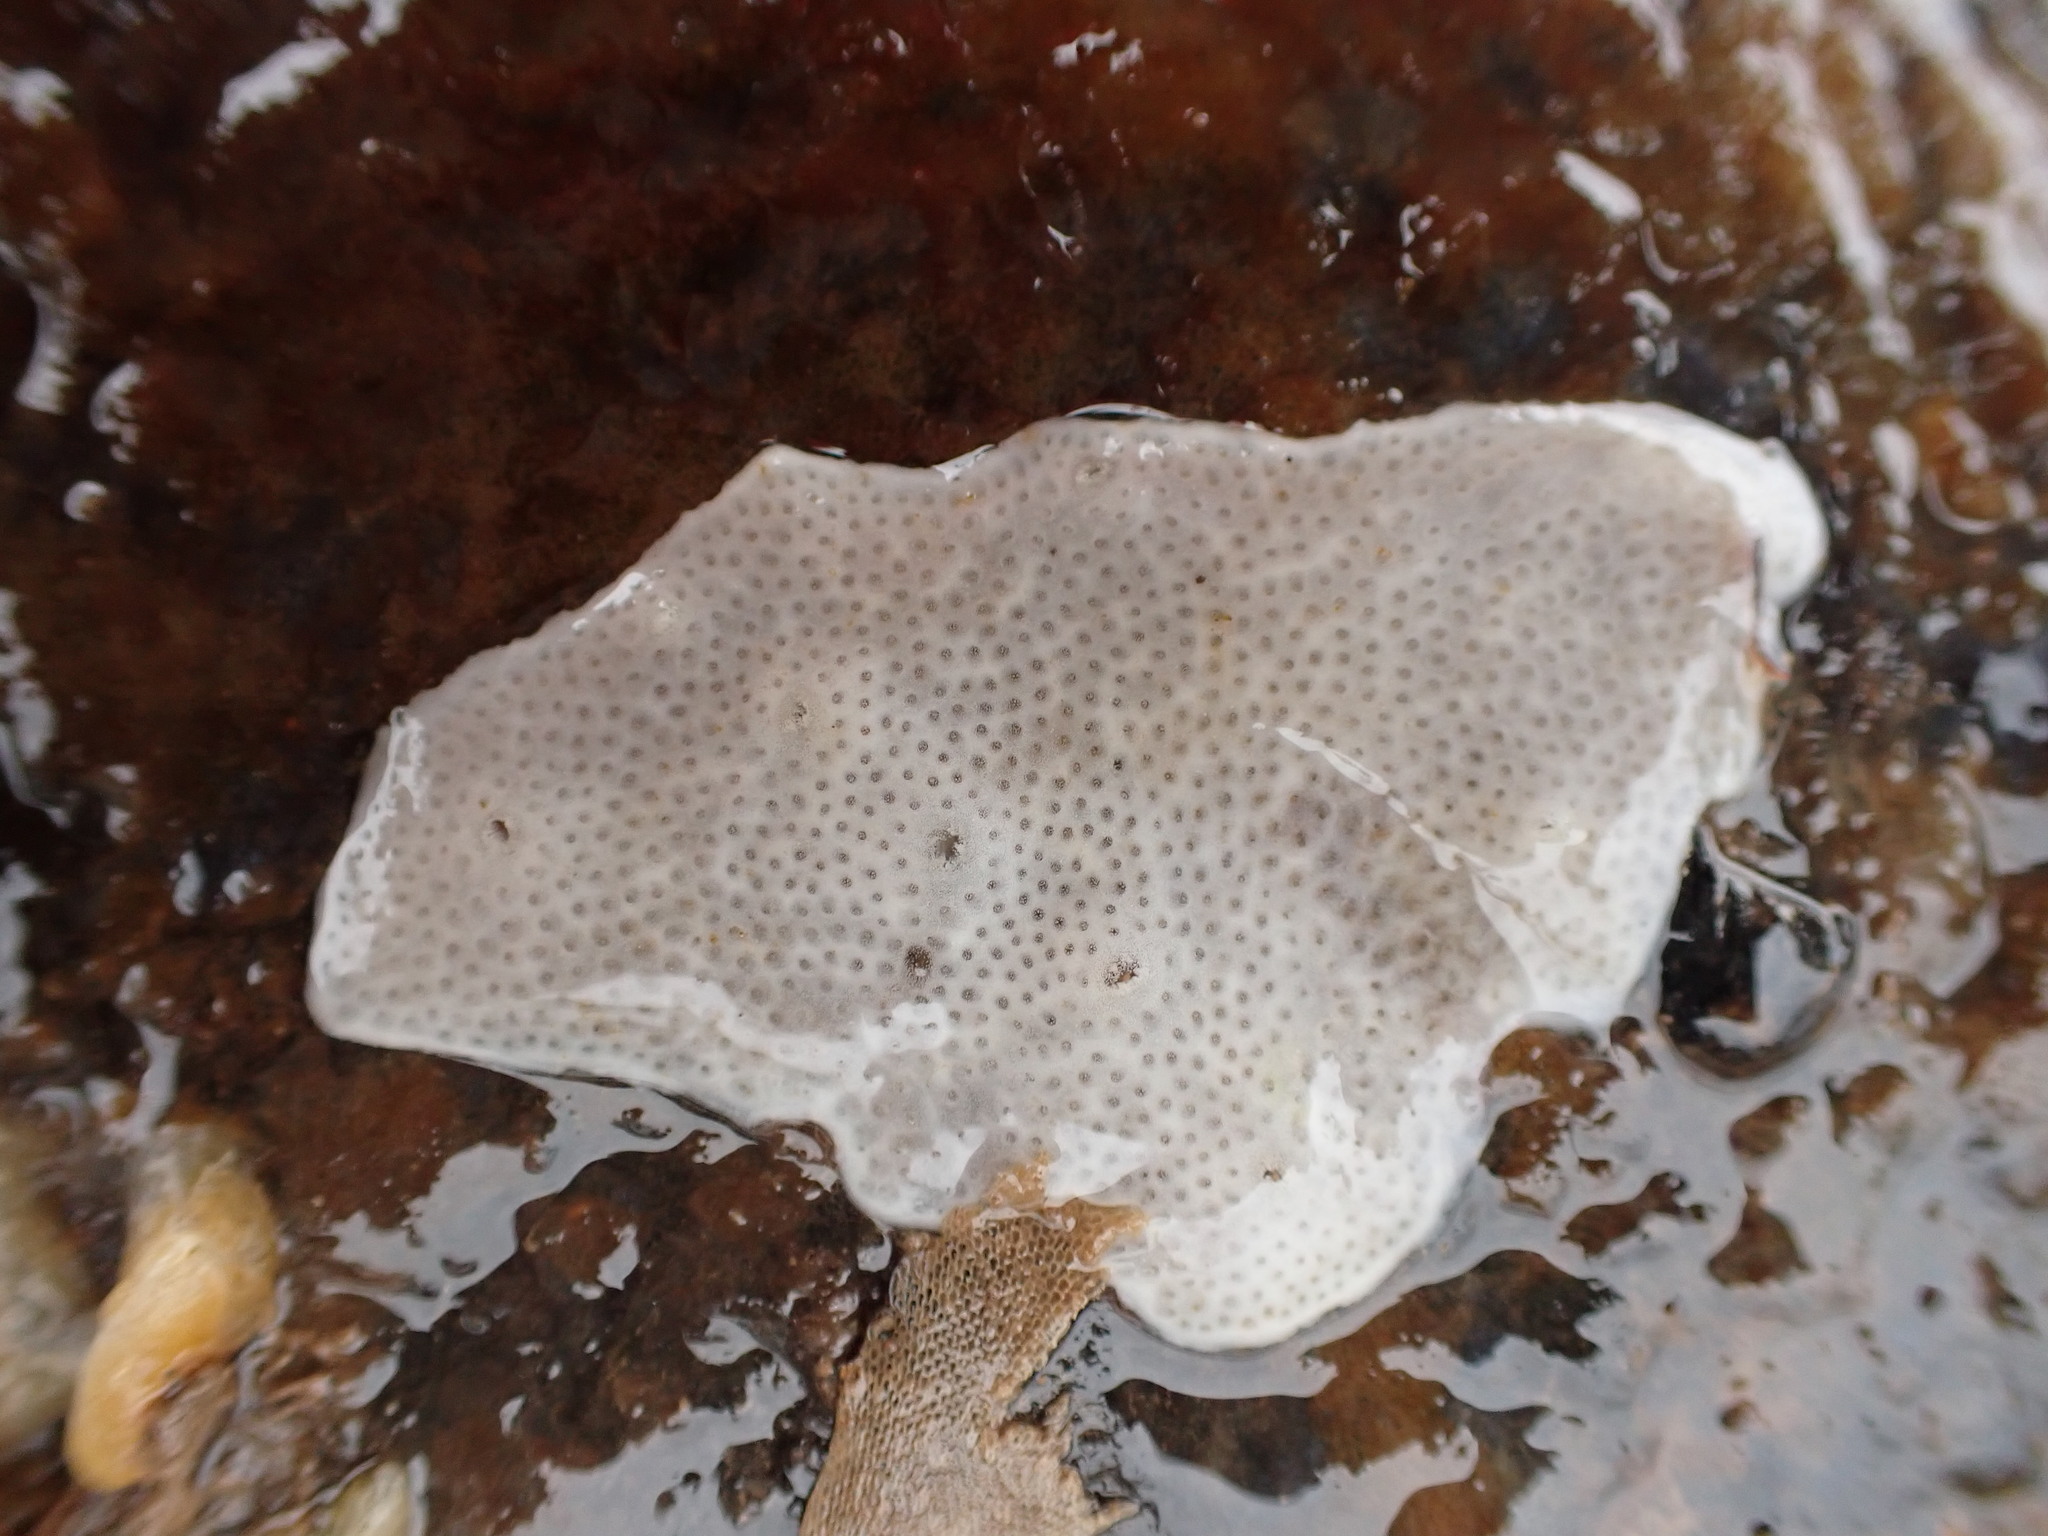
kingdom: Animalia
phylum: Chordata
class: Ascidiacea
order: Aplousobranchia
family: Didemnidae
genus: Didemnum
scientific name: Didemnum albidum
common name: Northern white crust
